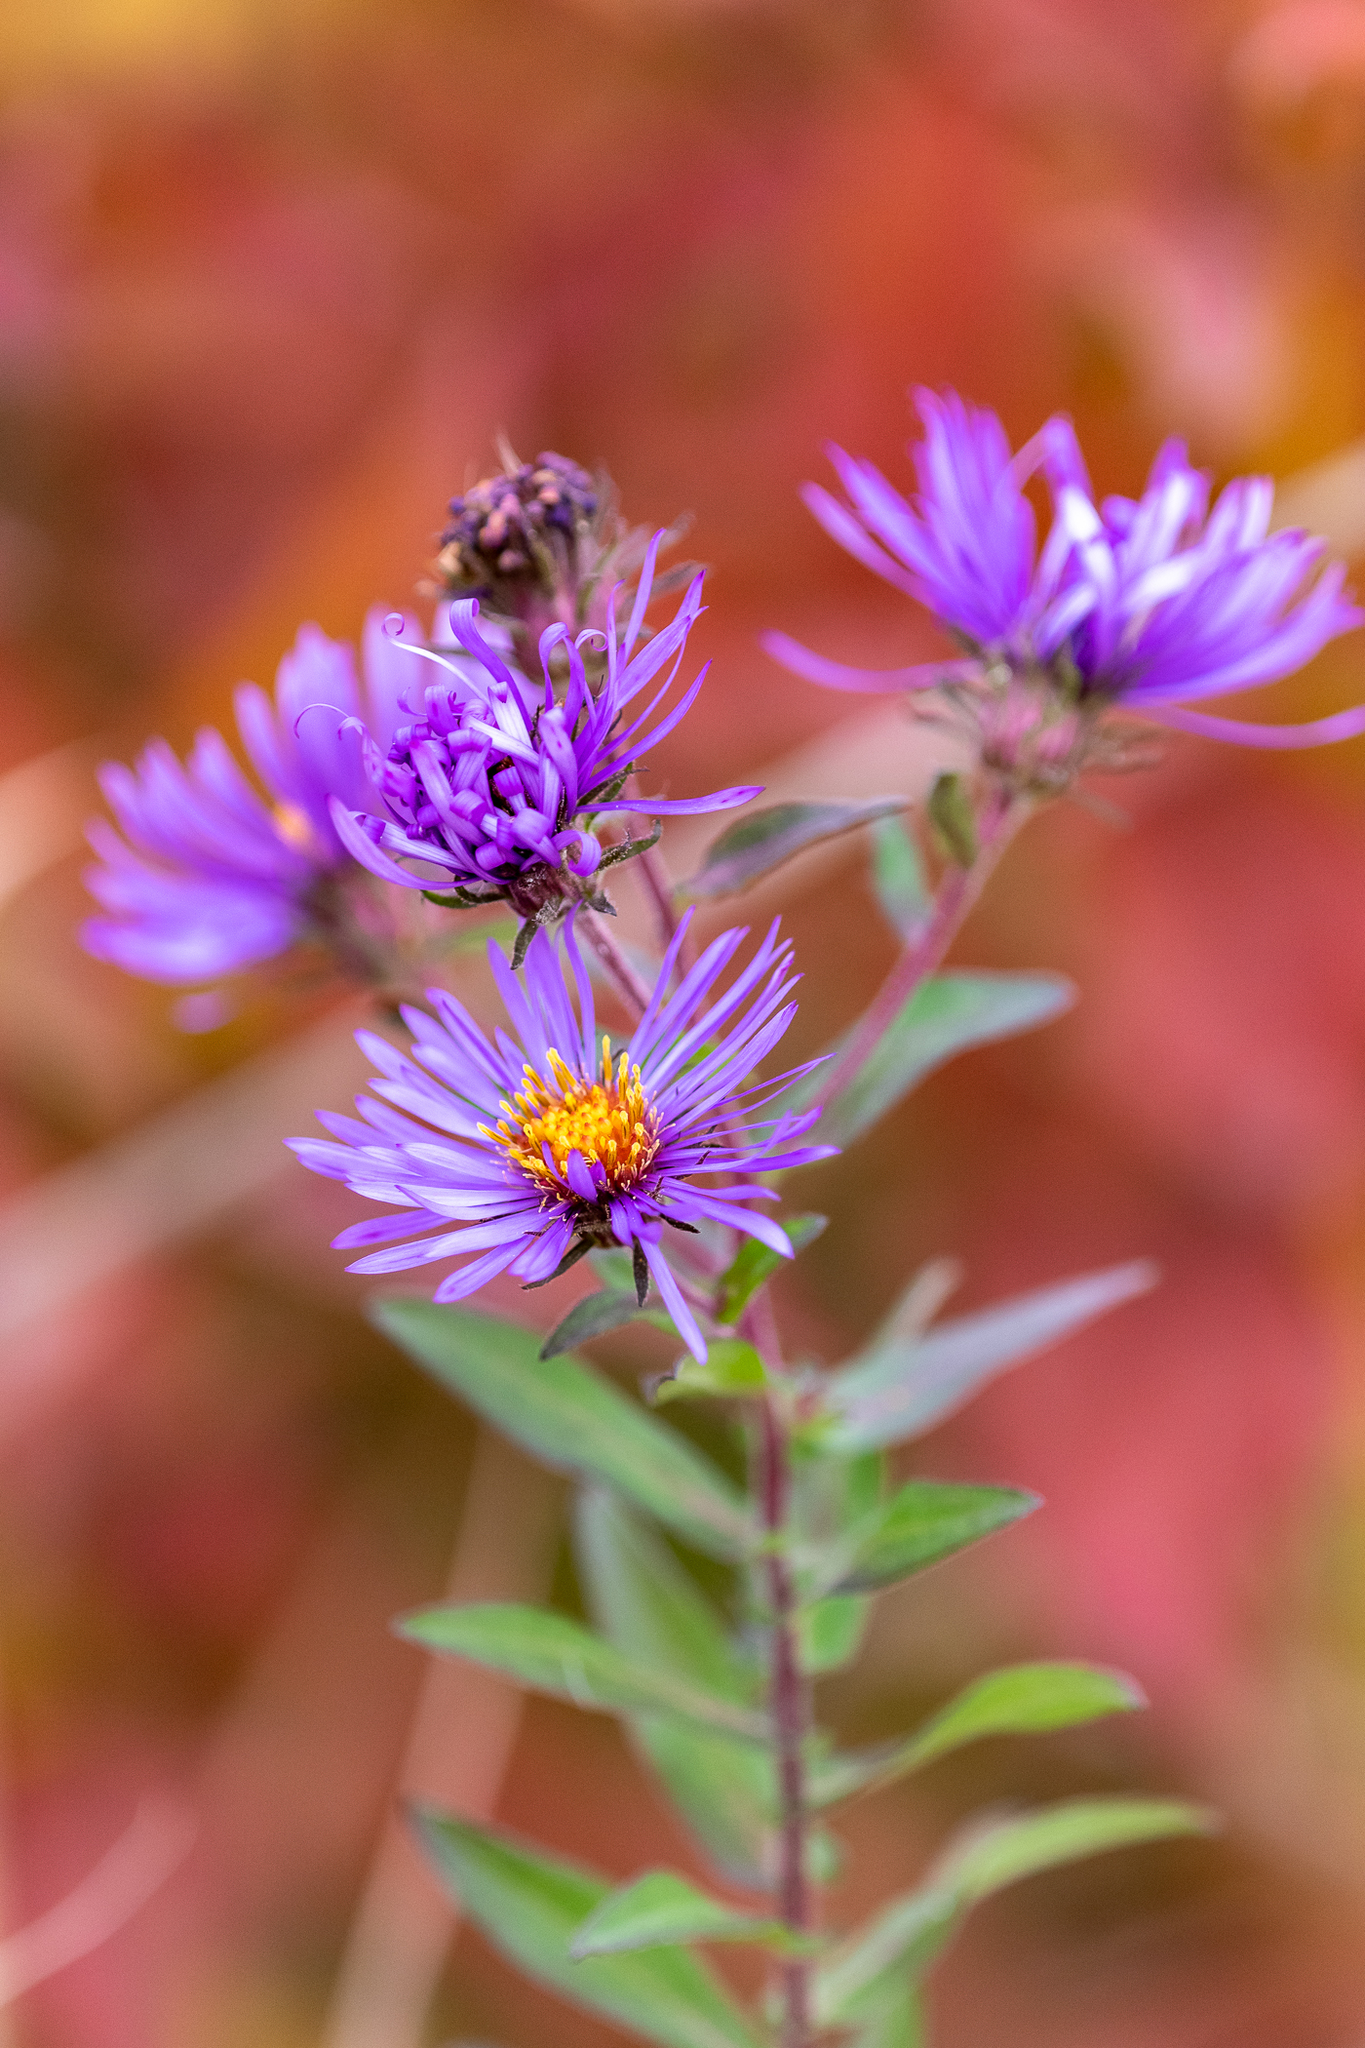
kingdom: Plantae
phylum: Tracheophyta
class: Magnoliopsida
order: Asterales
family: Asteraceae
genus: Symphyotrichum
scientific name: Symphyotrichum novae-angliae
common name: Michaelmas daisy
